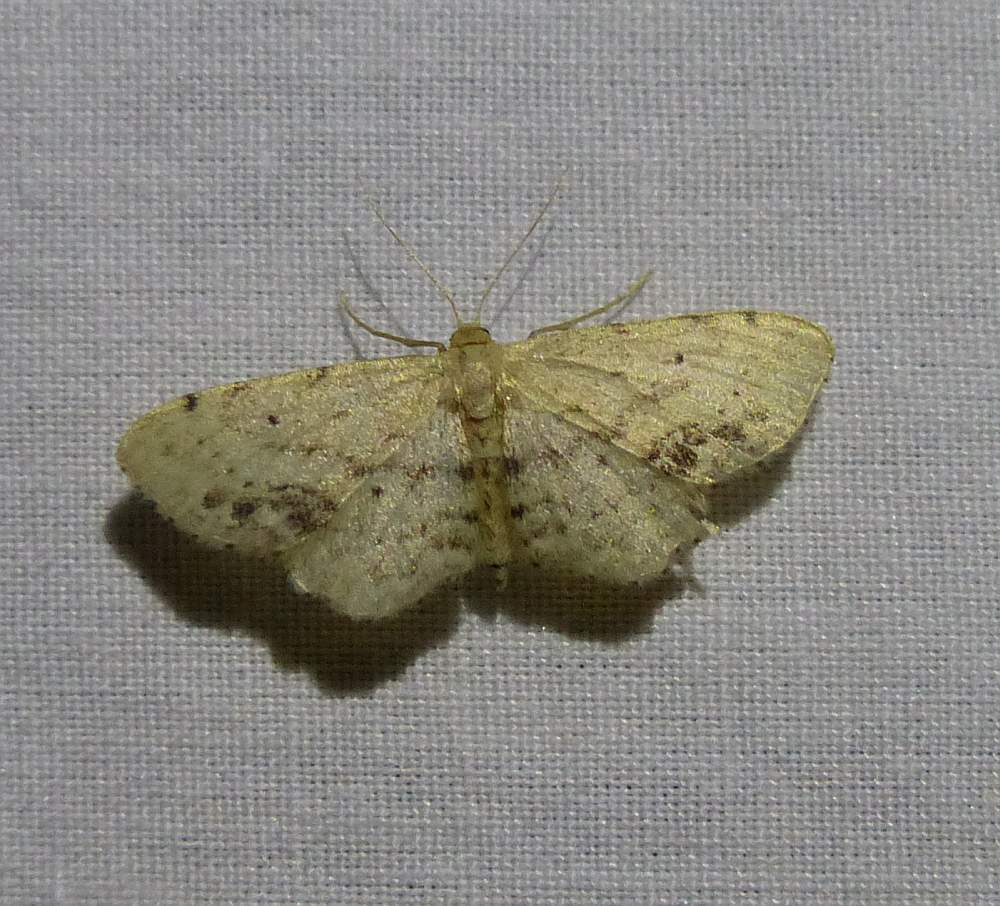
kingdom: Animalia
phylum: Arthropoda
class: Insecta
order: Lepidoptera
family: Geometridae
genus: Idaea
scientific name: Idaea dimidiata
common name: Single-dotted wave
